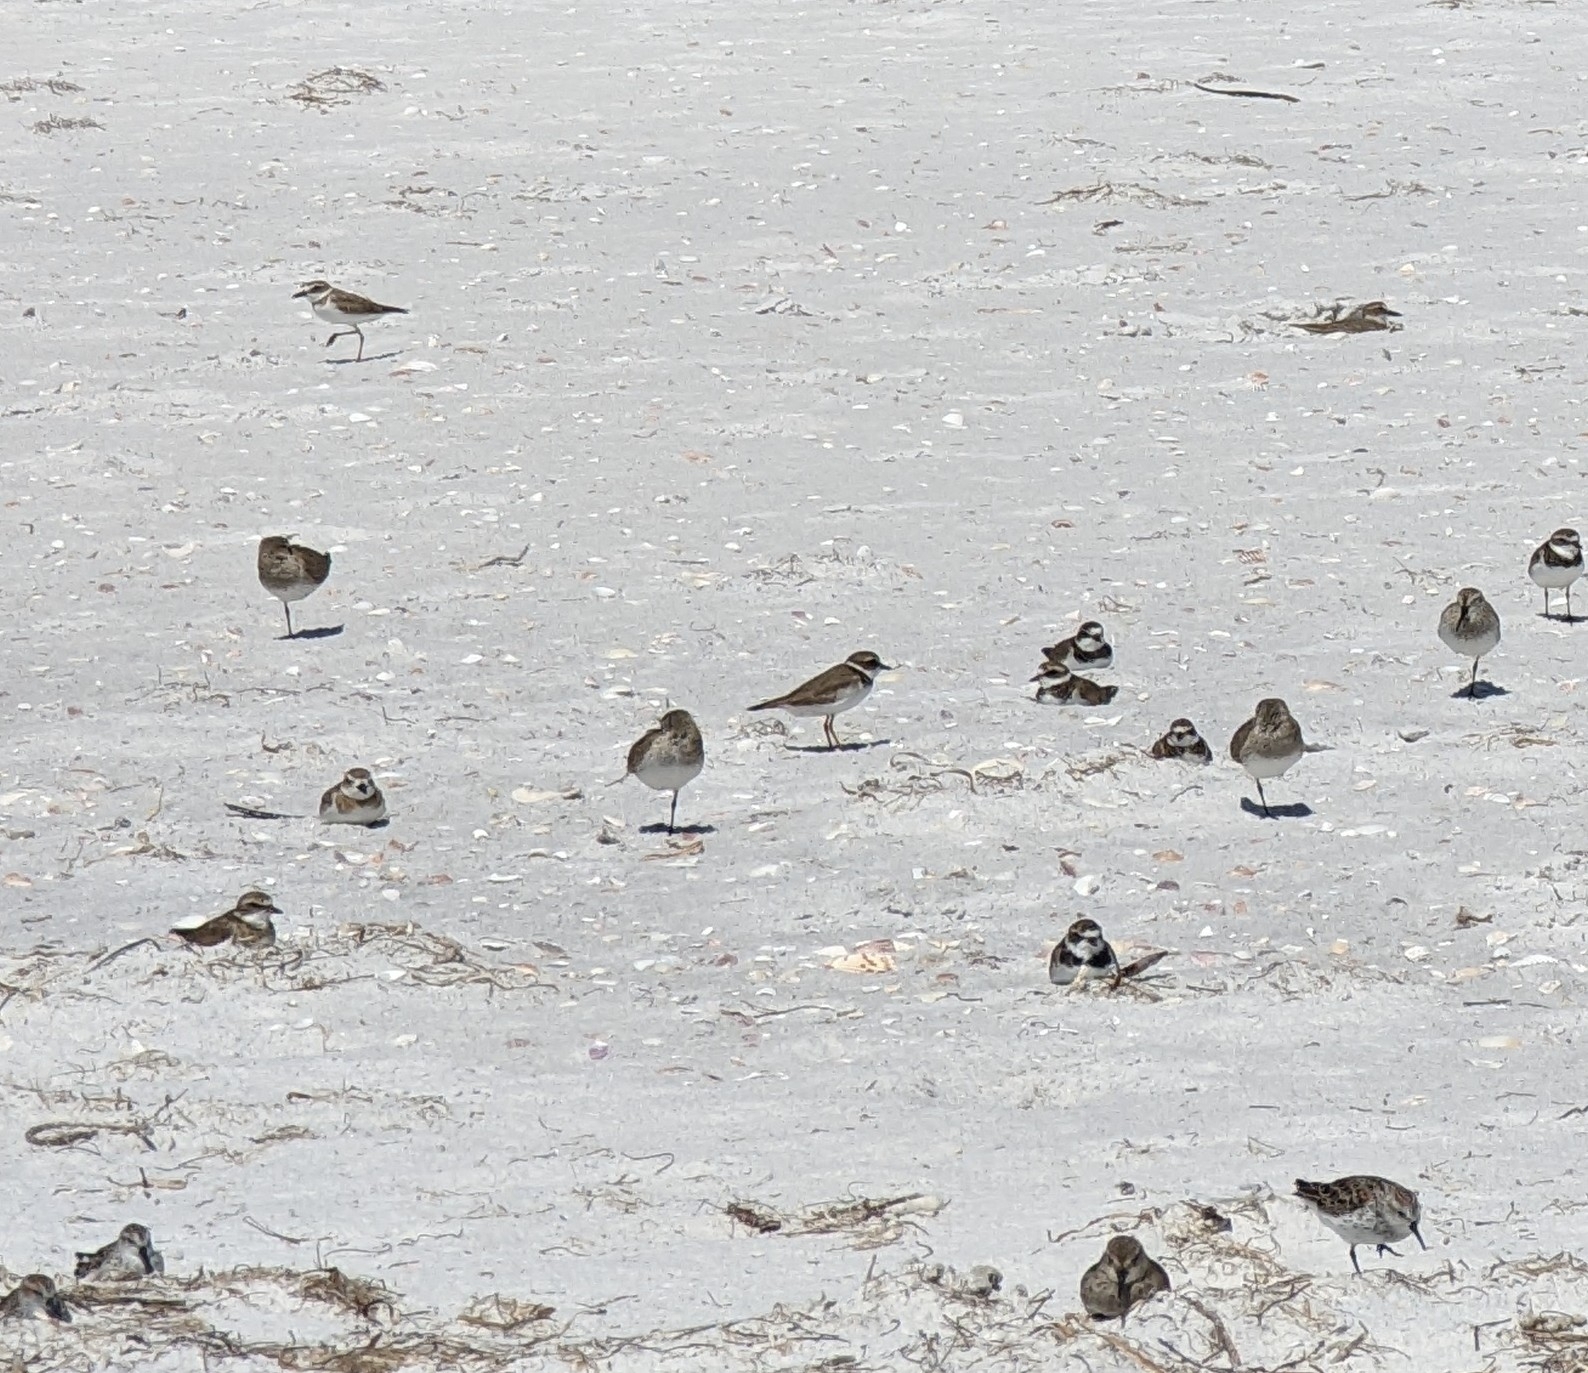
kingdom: Animalia
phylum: Chordata
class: Aves
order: Charadriiformes
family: Charadriidae
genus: Charadrius
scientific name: Charadrius semipalmatus
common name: Semipalmated plover
